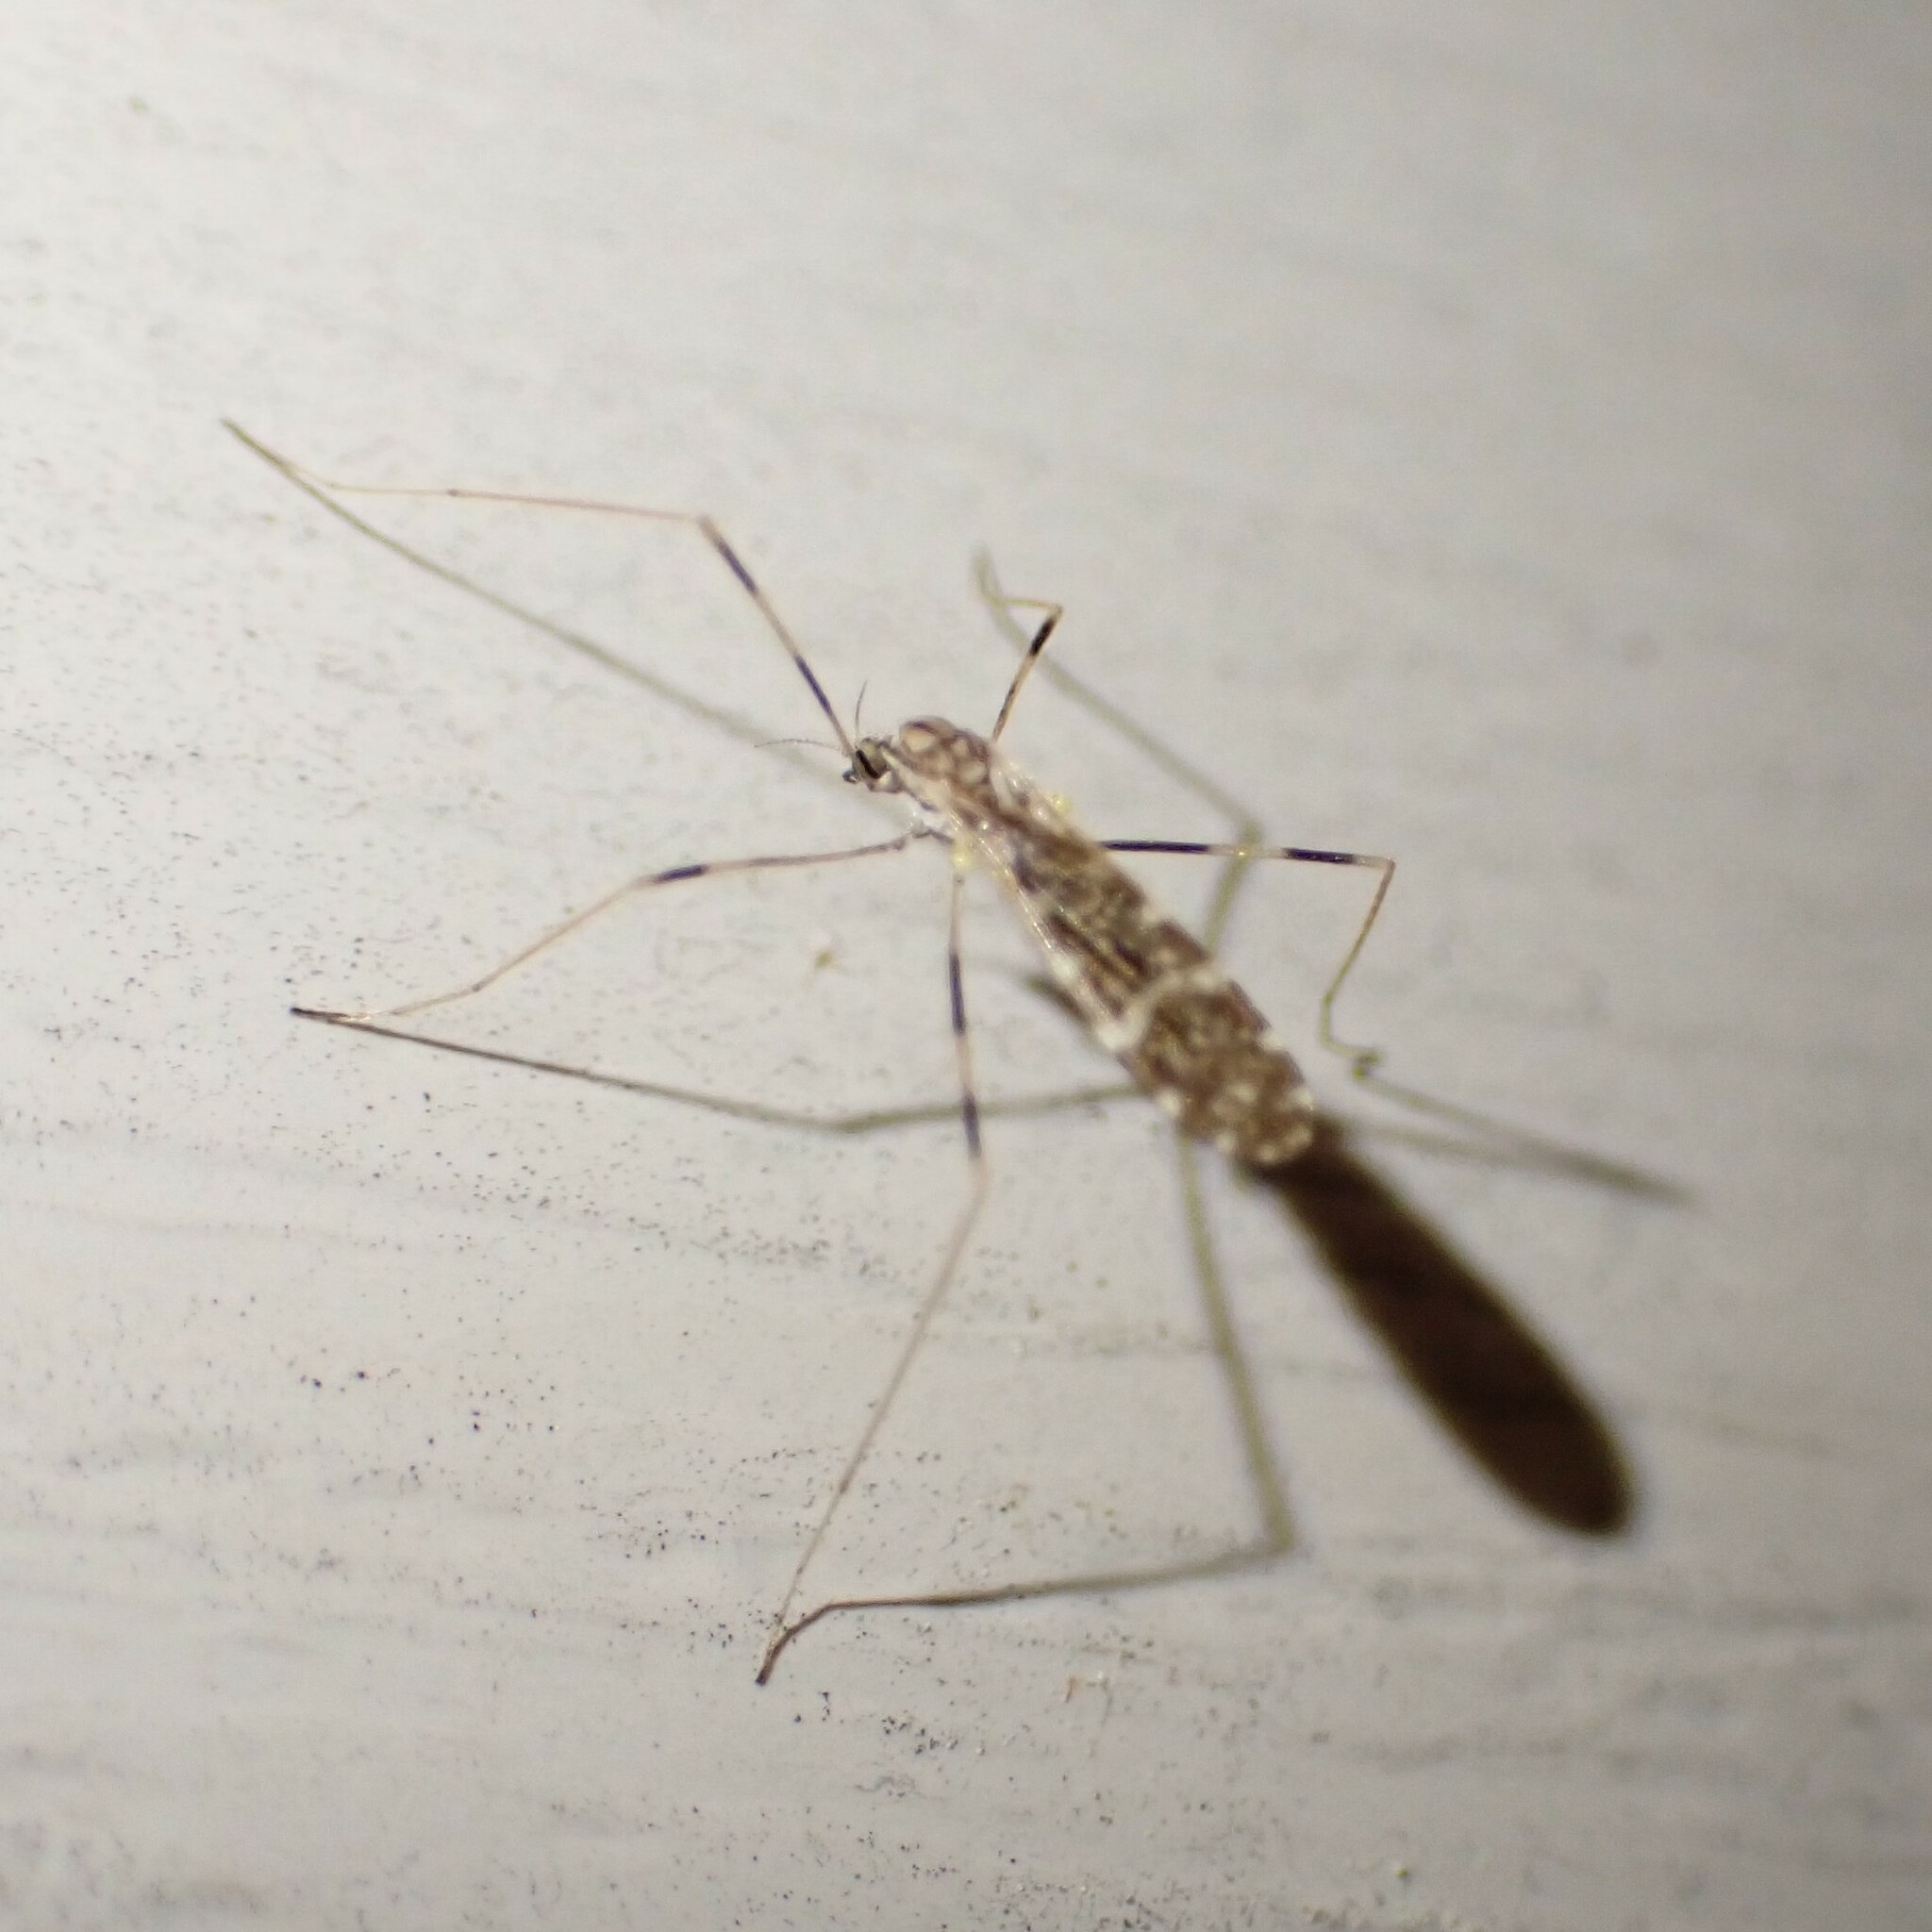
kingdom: Animalia
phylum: Arthropoda
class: Insecta
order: Diptera
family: Limoniidae
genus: Erioptera
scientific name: Erioptera caliptera
